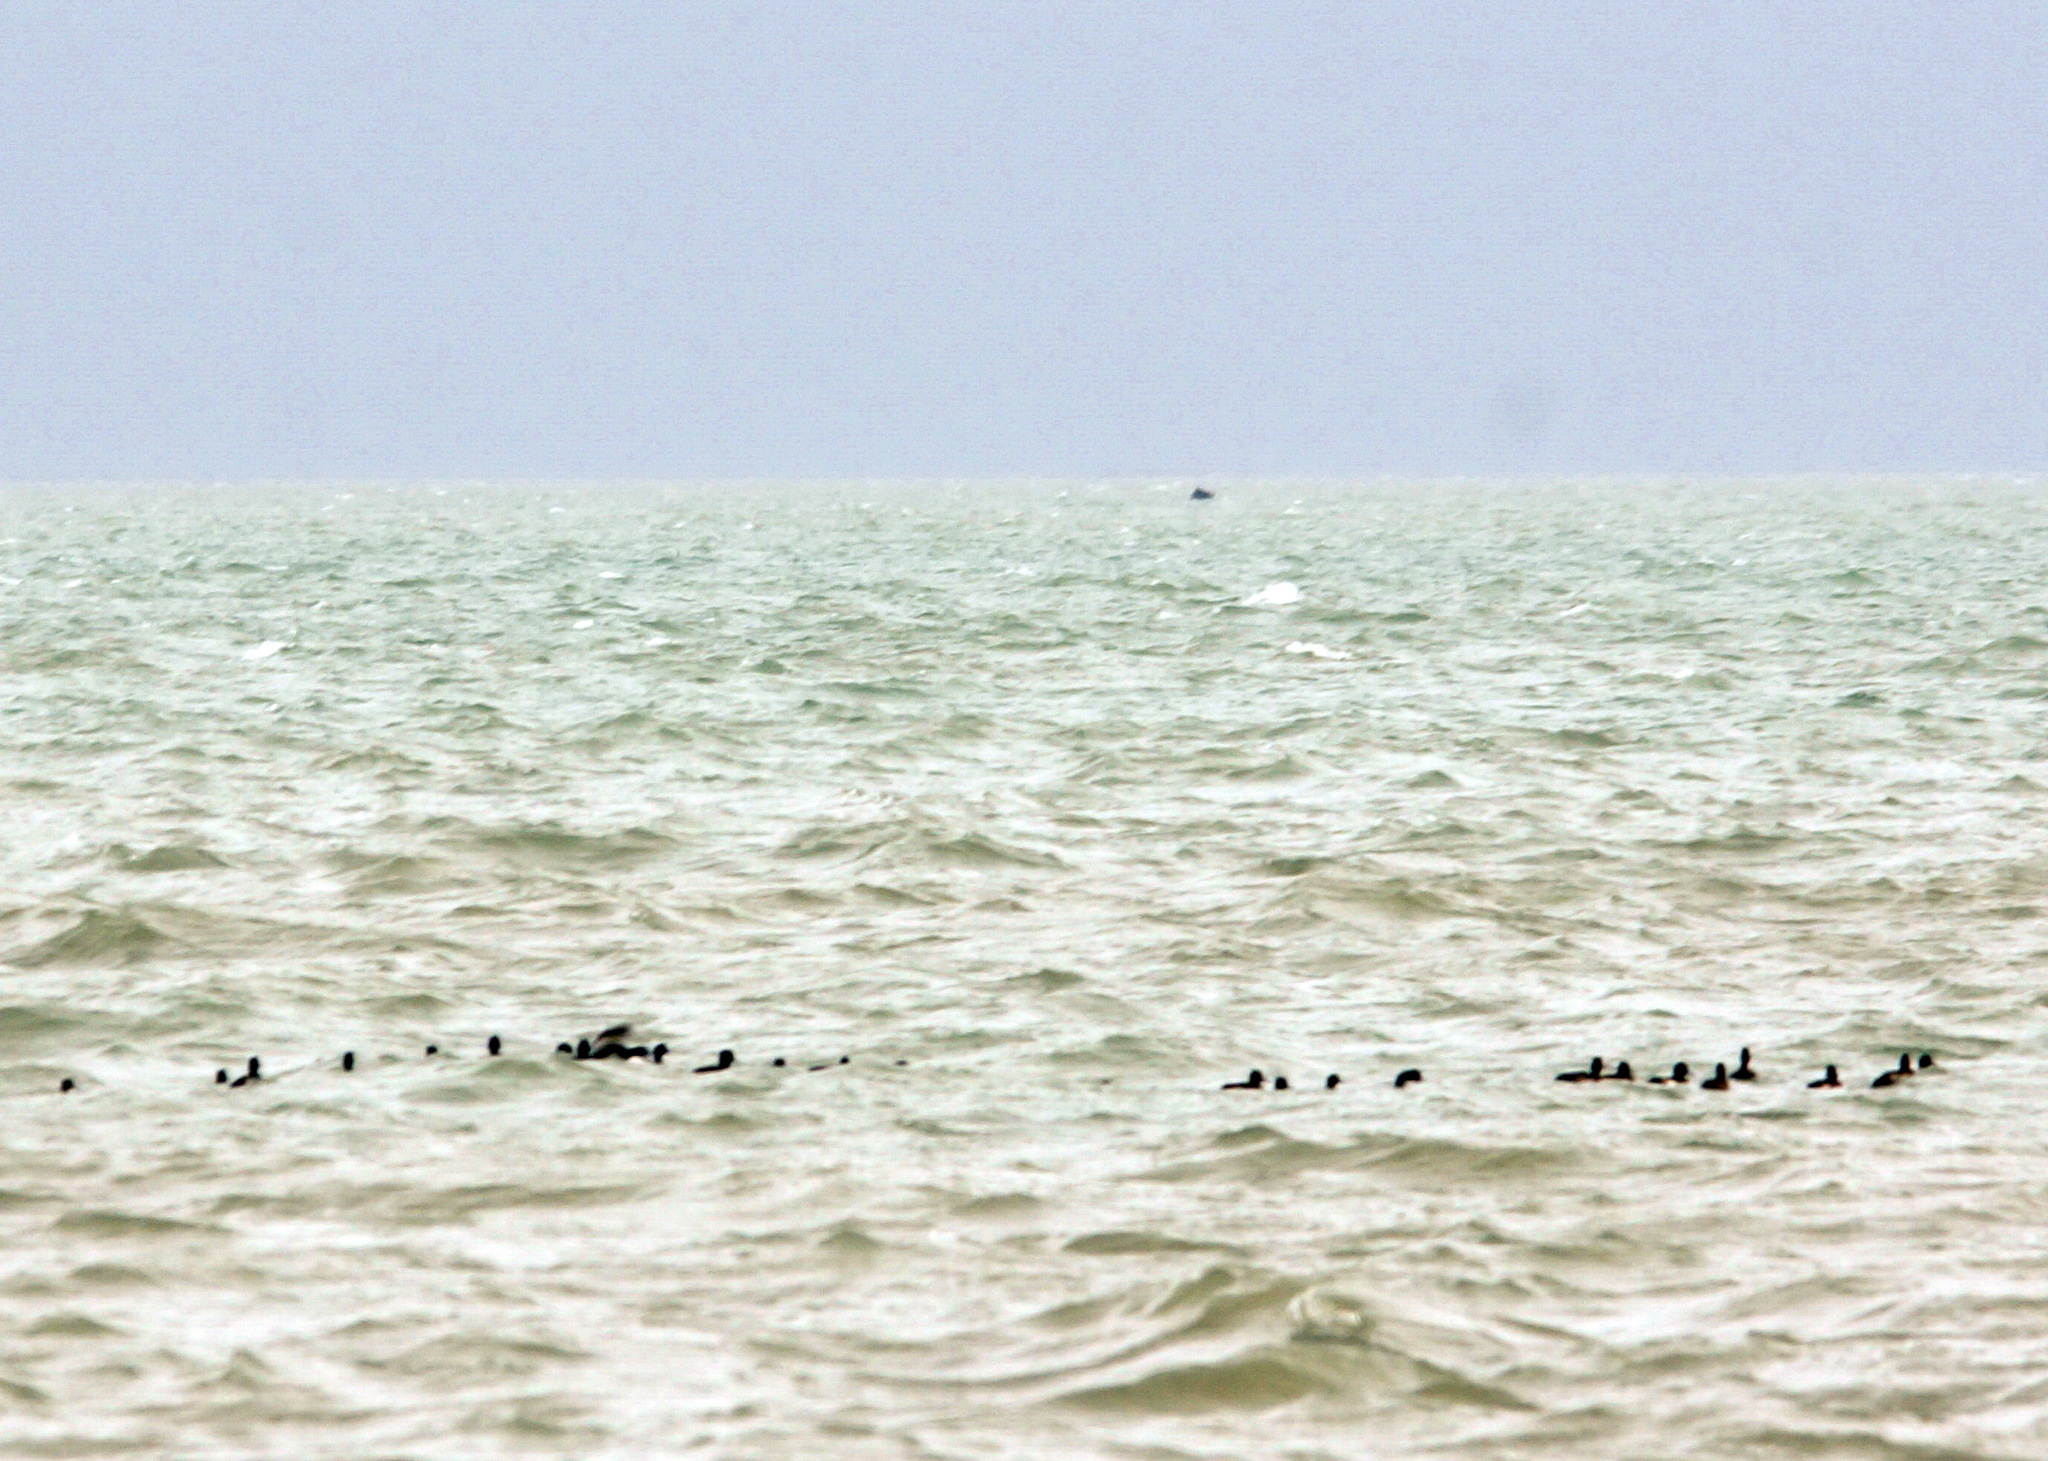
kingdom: Animalia
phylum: Chordata
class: Aves
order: Anseriformes
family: Anatidae
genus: Aythya
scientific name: Aythya fuligula
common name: Tufted duck
